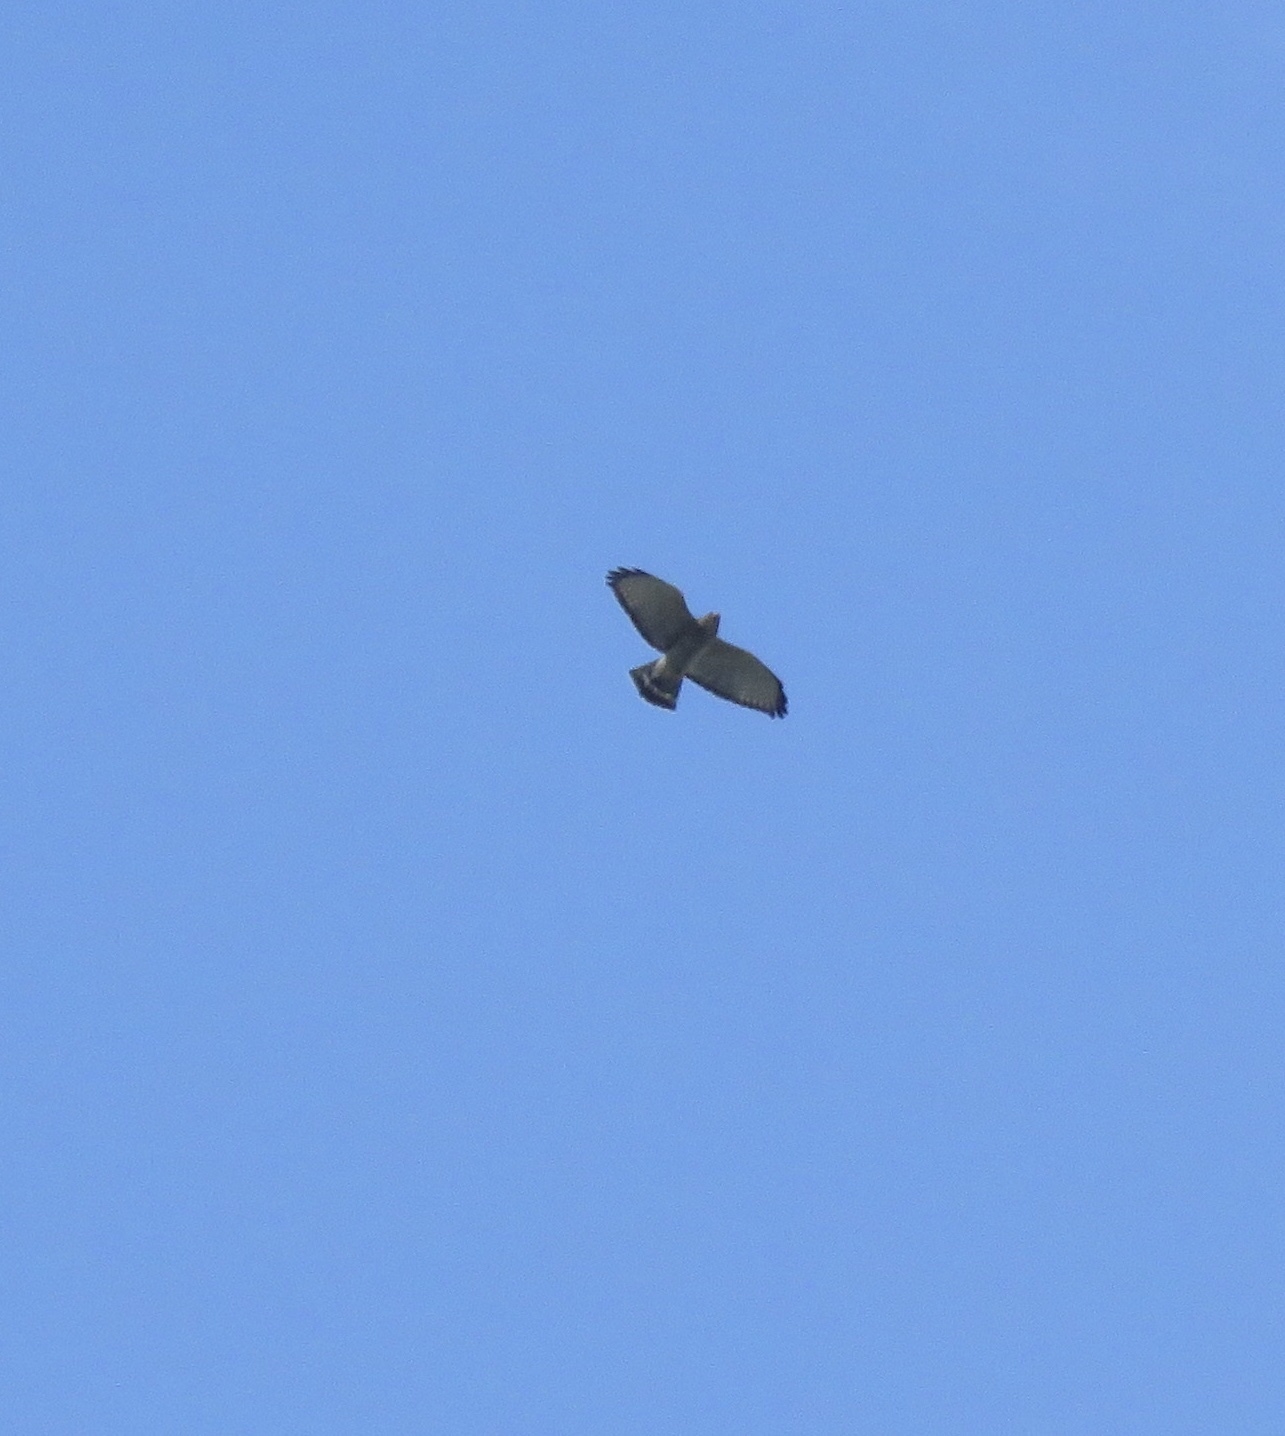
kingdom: Animalia
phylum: Chordata
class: Aves
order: Accipitriformes
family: Accipitridae
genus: Buteo
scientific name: Buteo platypterus
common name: Broad-winged hawk
